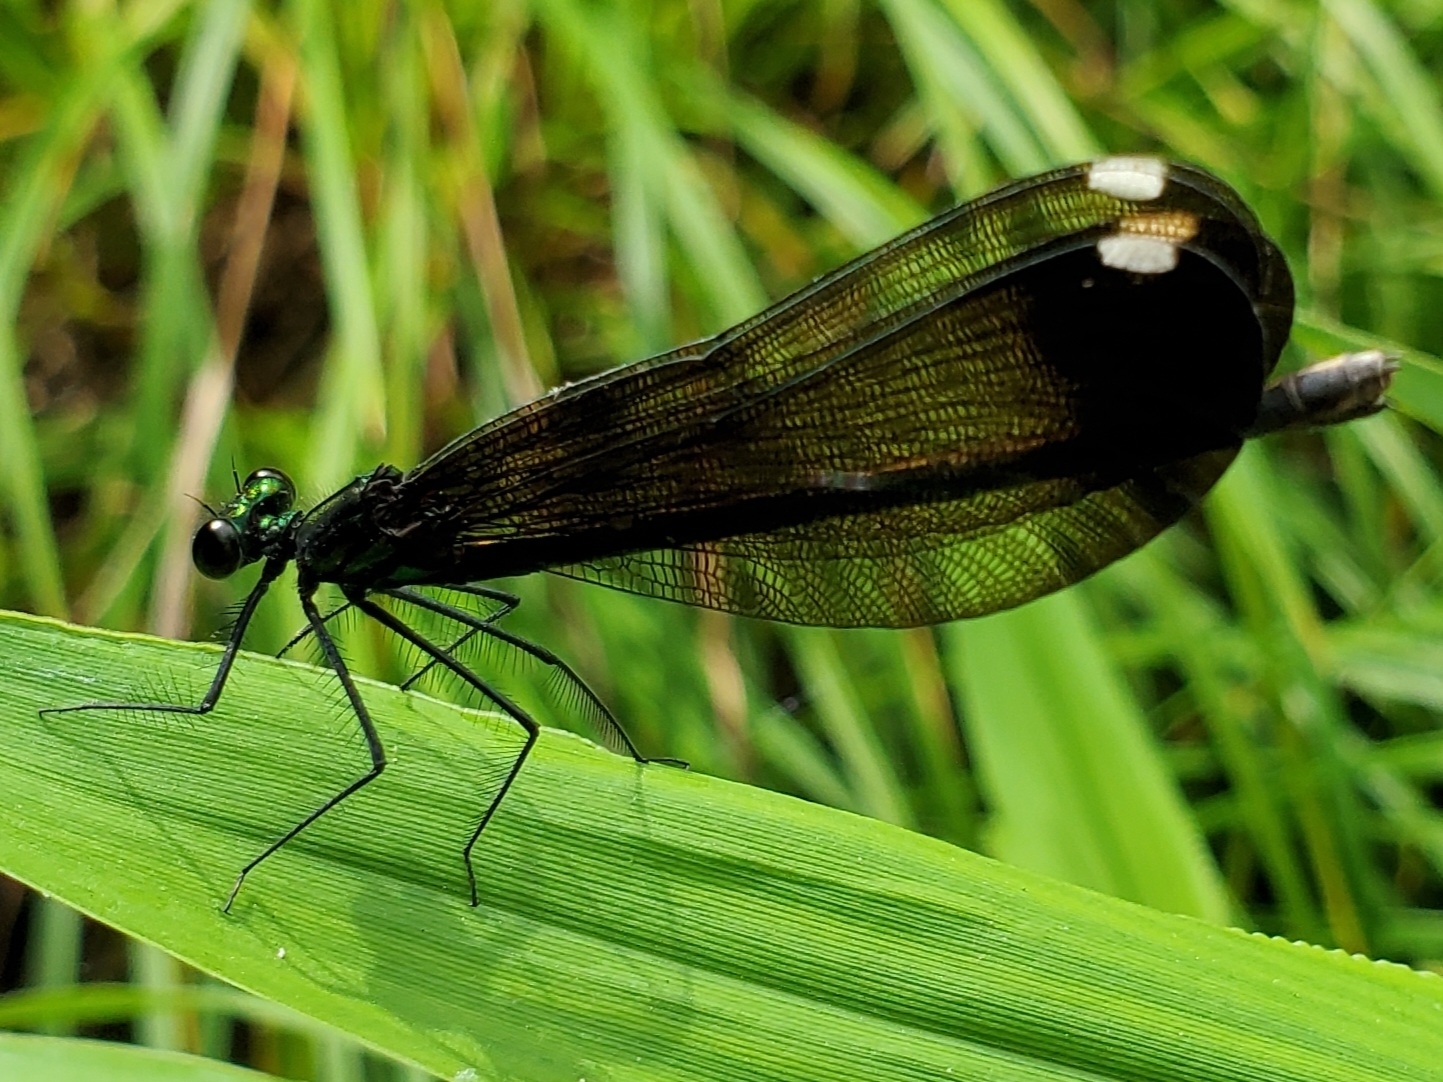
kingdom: Animalia
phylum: Arthropoda
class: Insecta
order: Odonata
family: Calopterygidae
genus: Calopteryx
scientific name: Calopteryx maculata
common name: Ebony jewelwing
